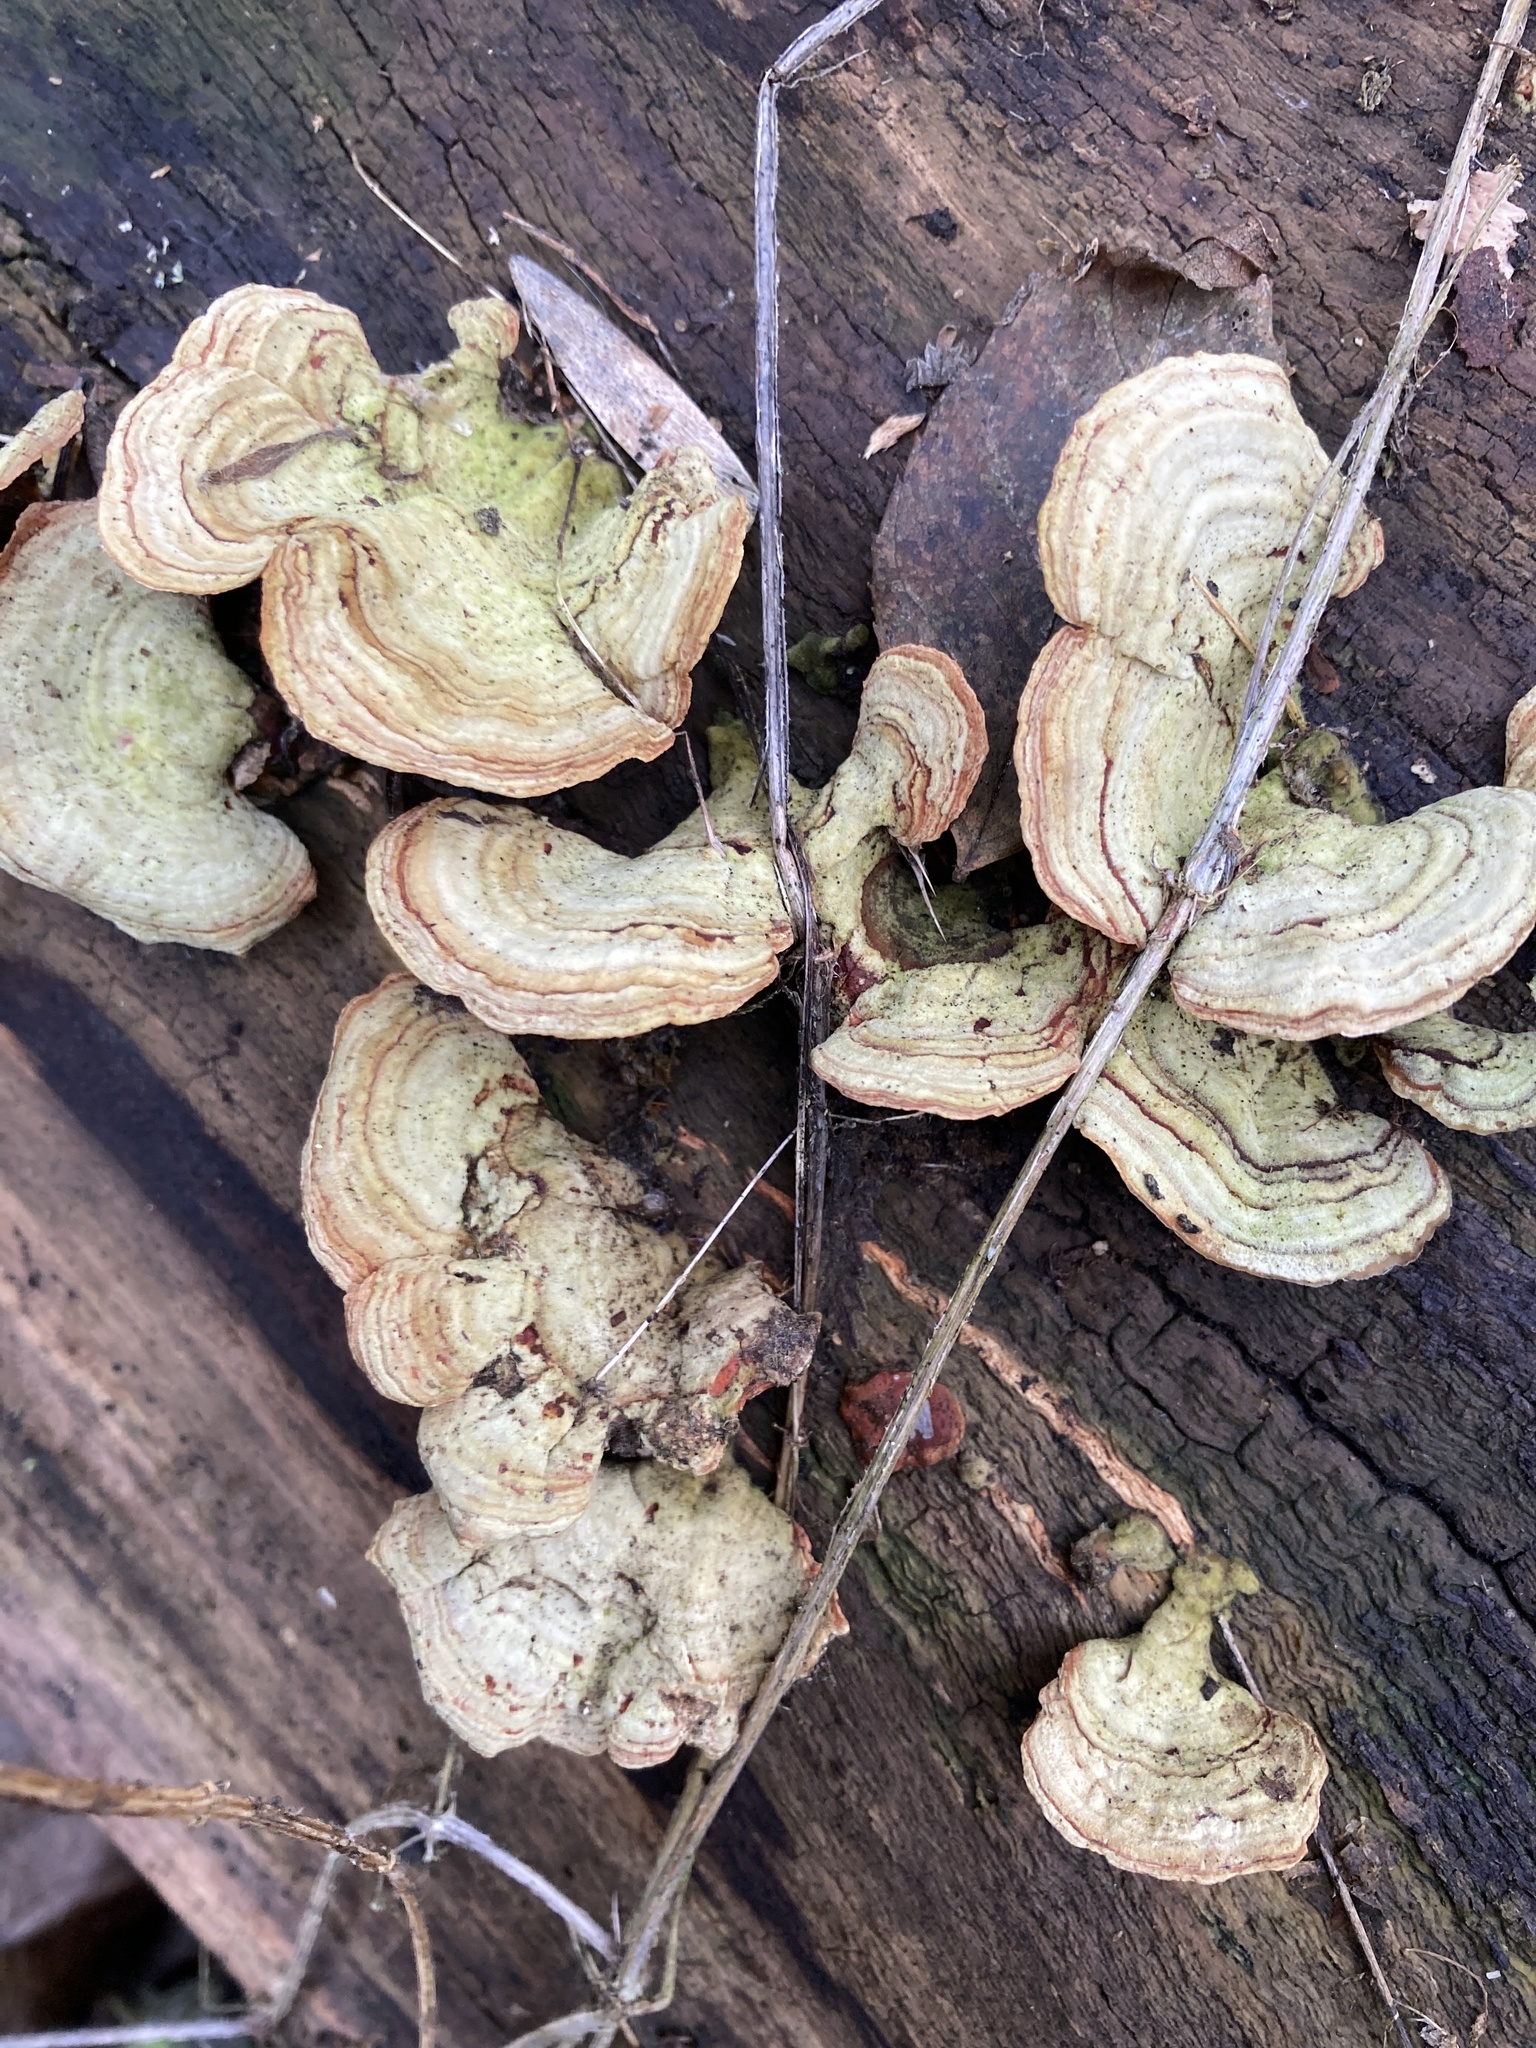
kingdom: Fungi
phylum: Basidiomycota
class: Agaricomycetes
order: Russulales
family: Stereaceae
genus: Stereum
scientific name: Stereum subtomentosum
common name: Yellowing curtain crust
